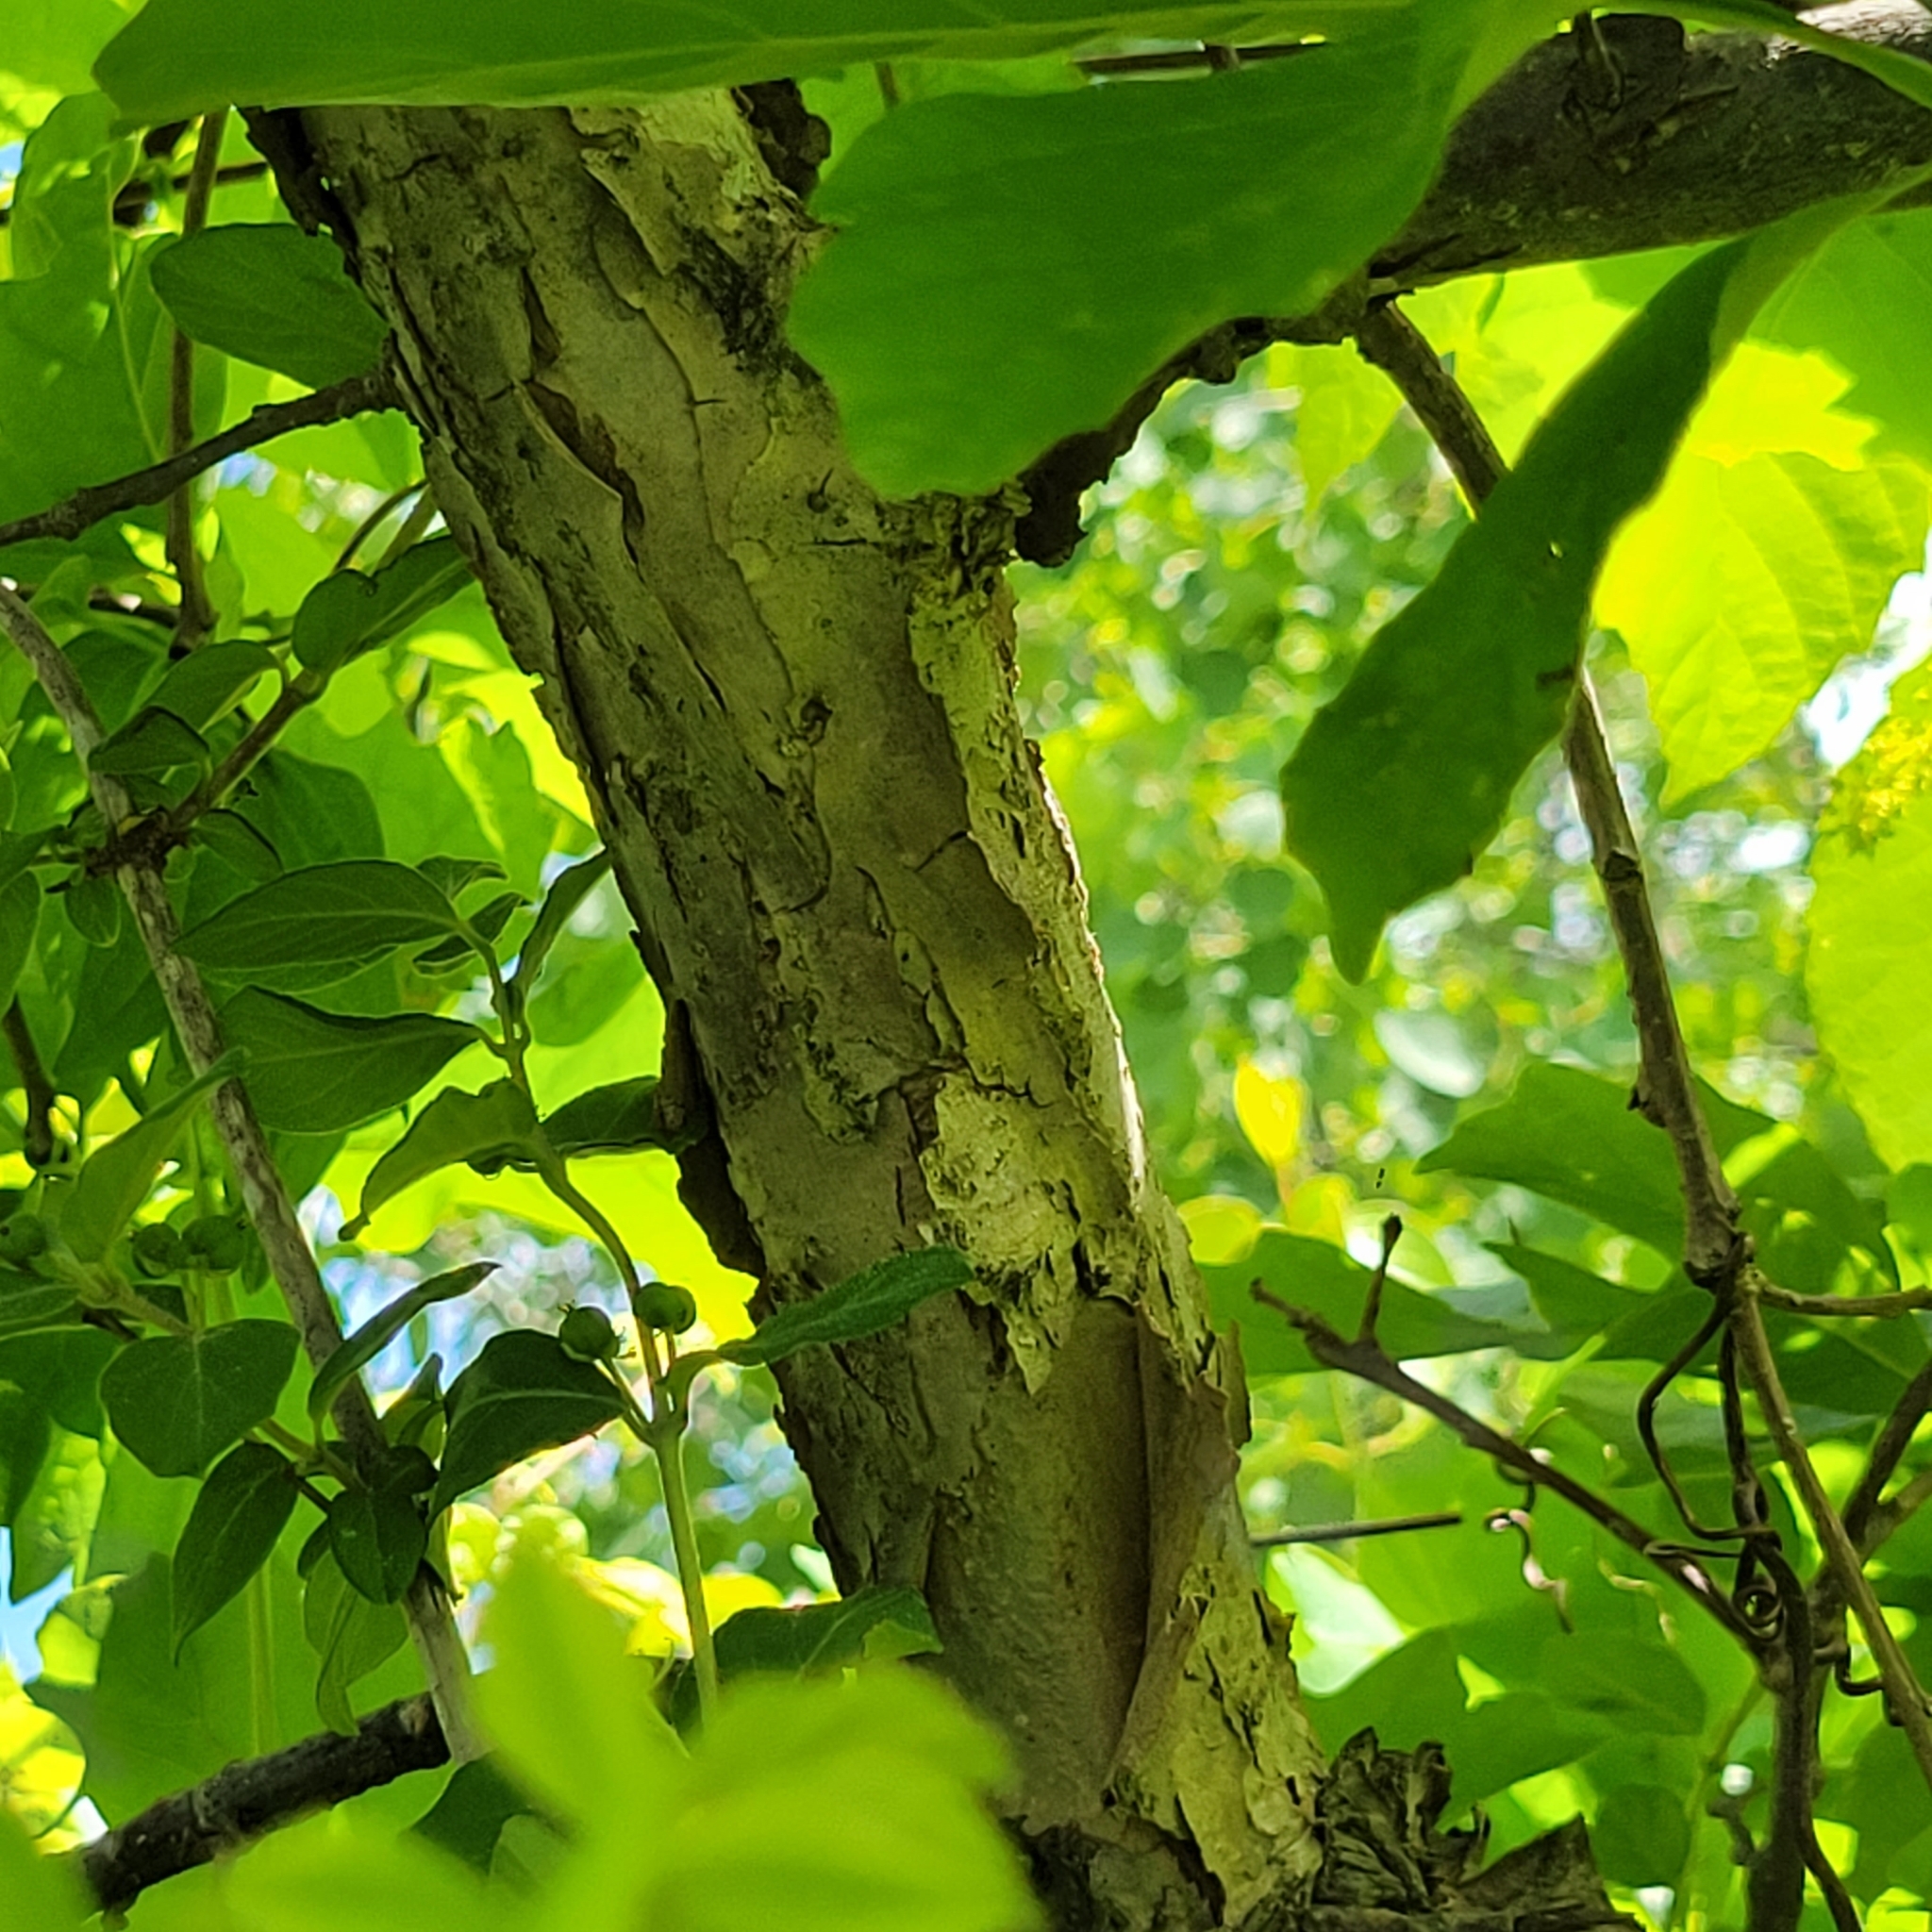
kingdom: Plantae
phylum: Tracheophyta
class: Magnoliopsida
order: Fagales
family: Fagaceae
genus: Quercus
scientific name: Quercus bicolor
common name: Swamp white oak
